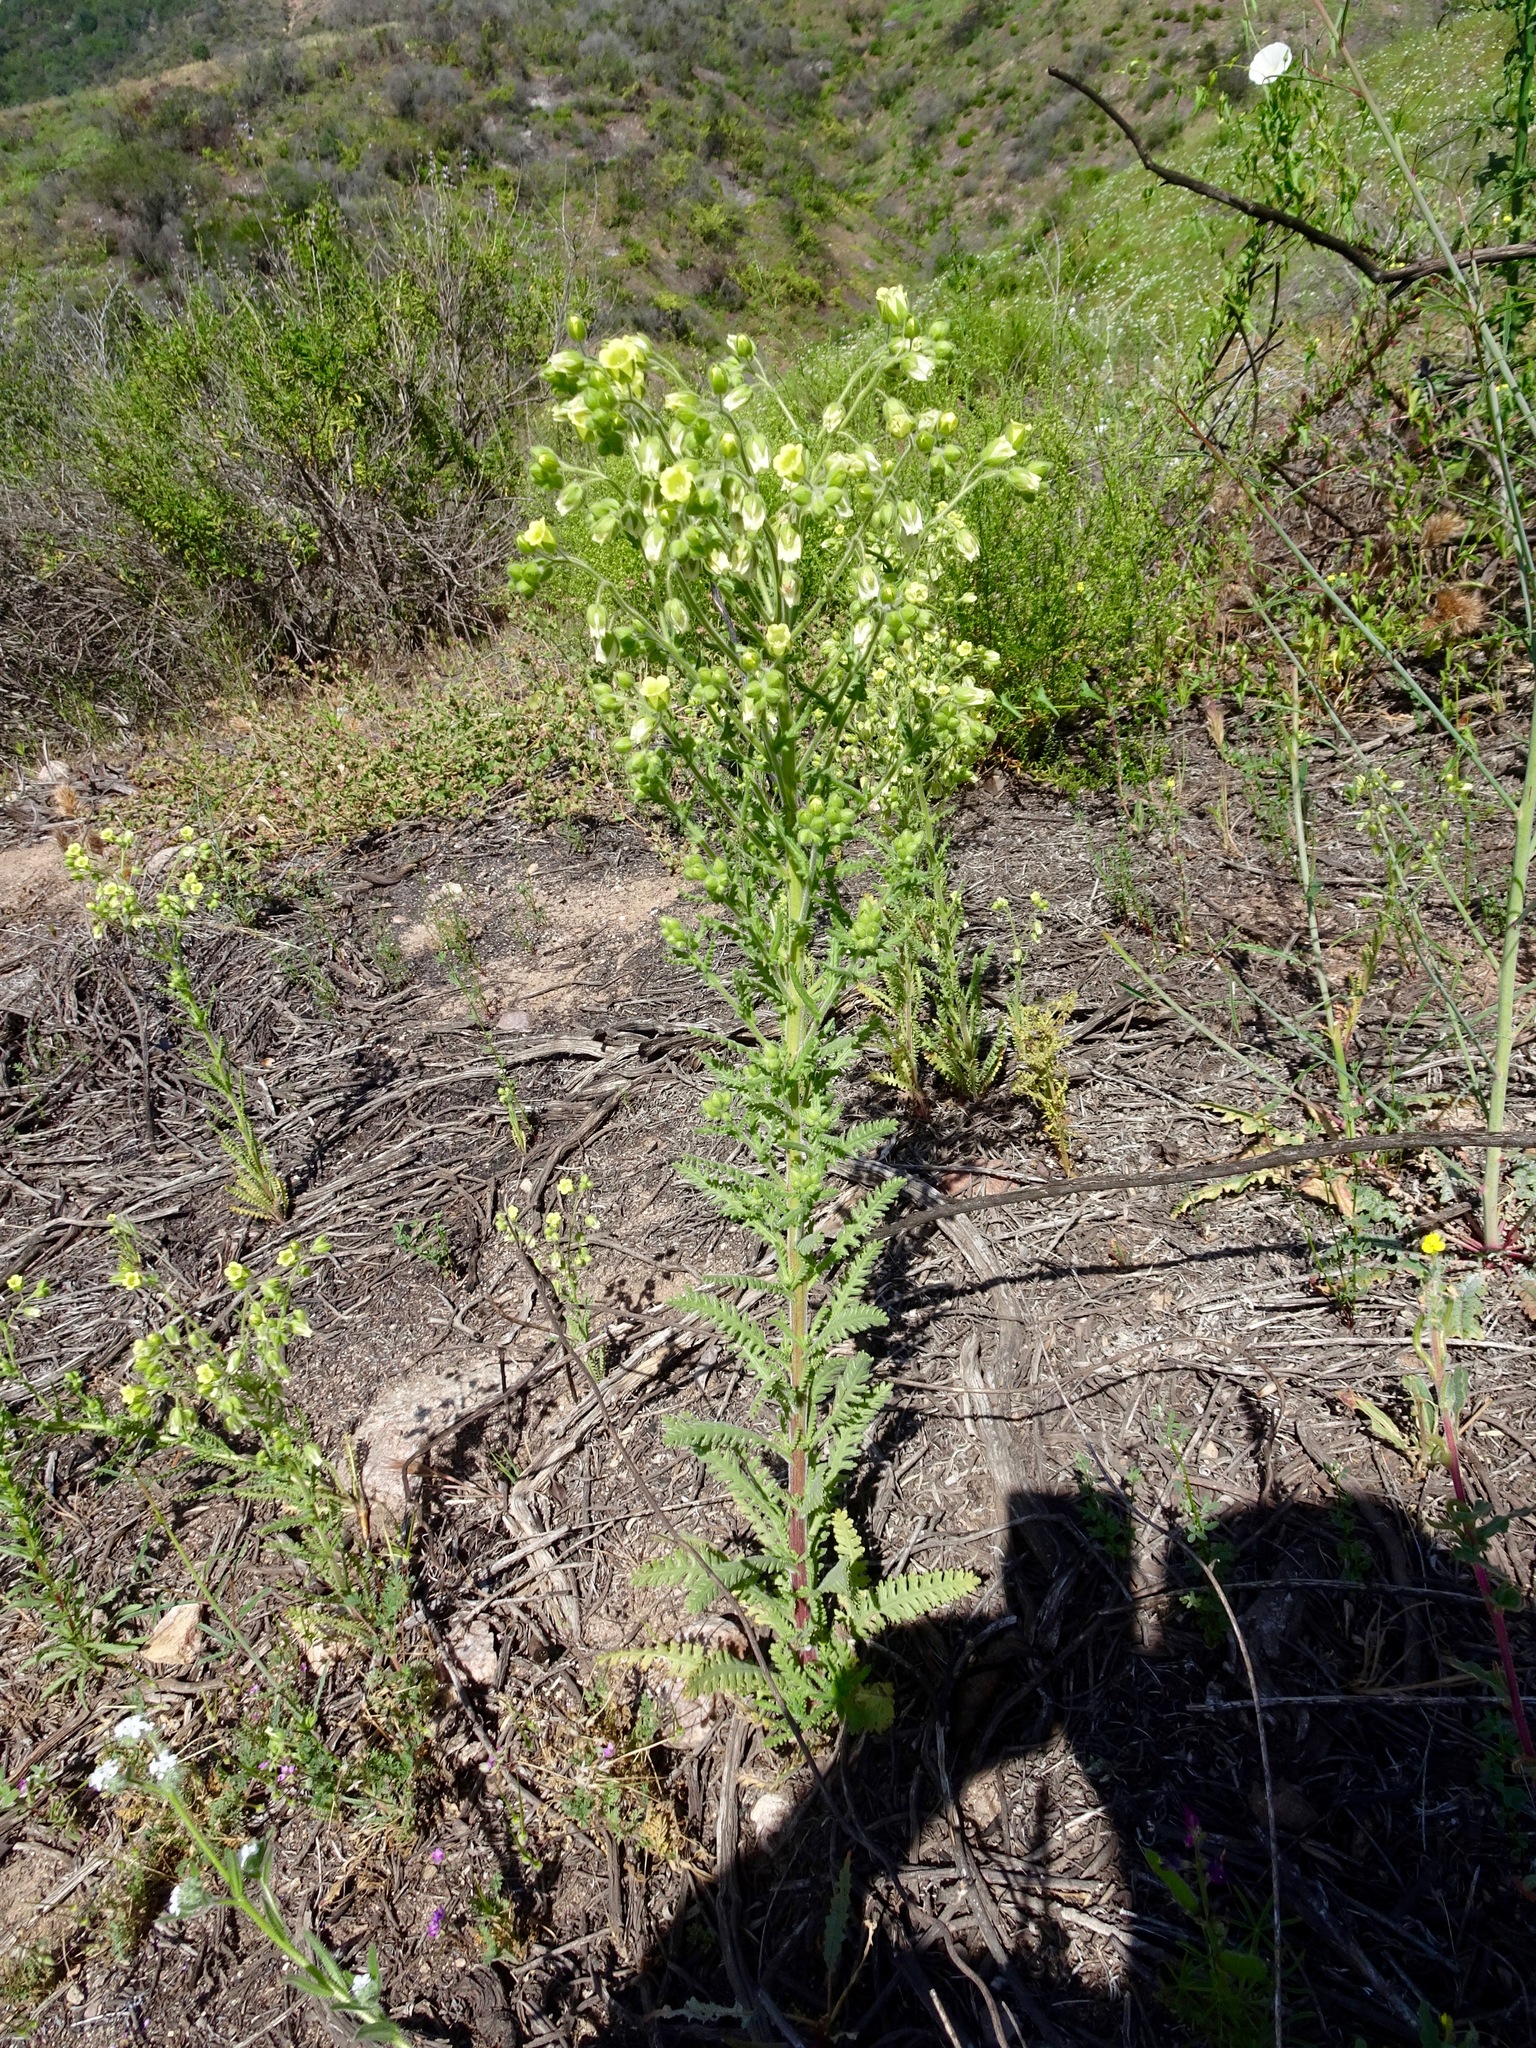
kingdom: Plantae
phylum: Tracheophyta
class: Magnoliopsida
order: Boraginales
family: Hydrophyllaceae
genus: Emmenanthe
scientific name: Emmenanthe penduliflora
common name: Whispering-bells
